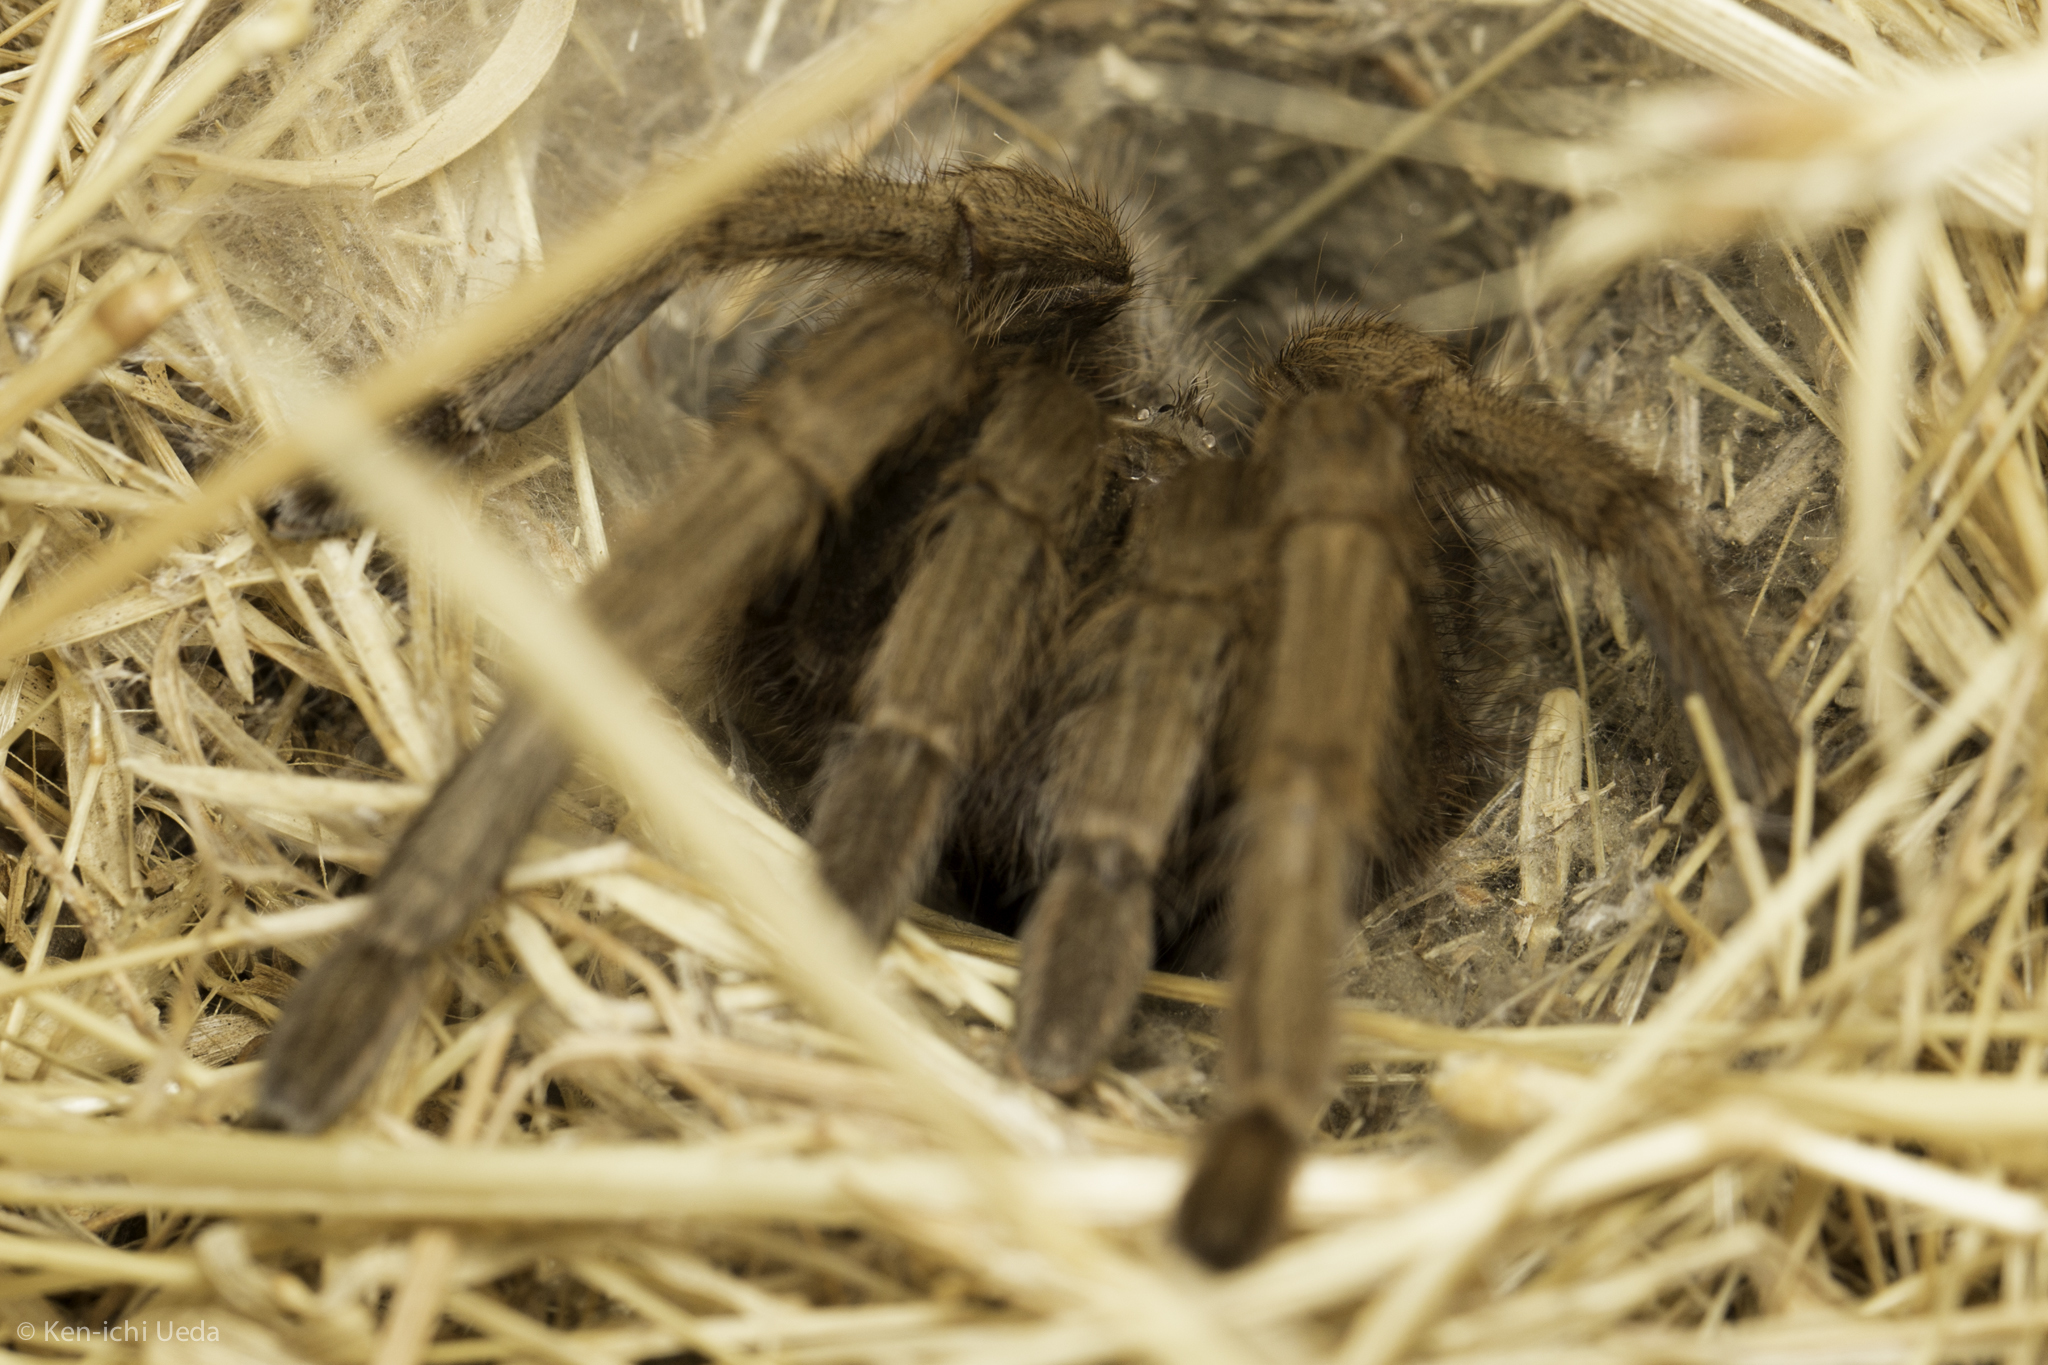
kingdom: Animalia
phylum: Arthropoda
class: Arachnida
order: Araneae
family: Theraphosidae
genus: Aphonopelma
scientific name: Aphonopelma iodius
